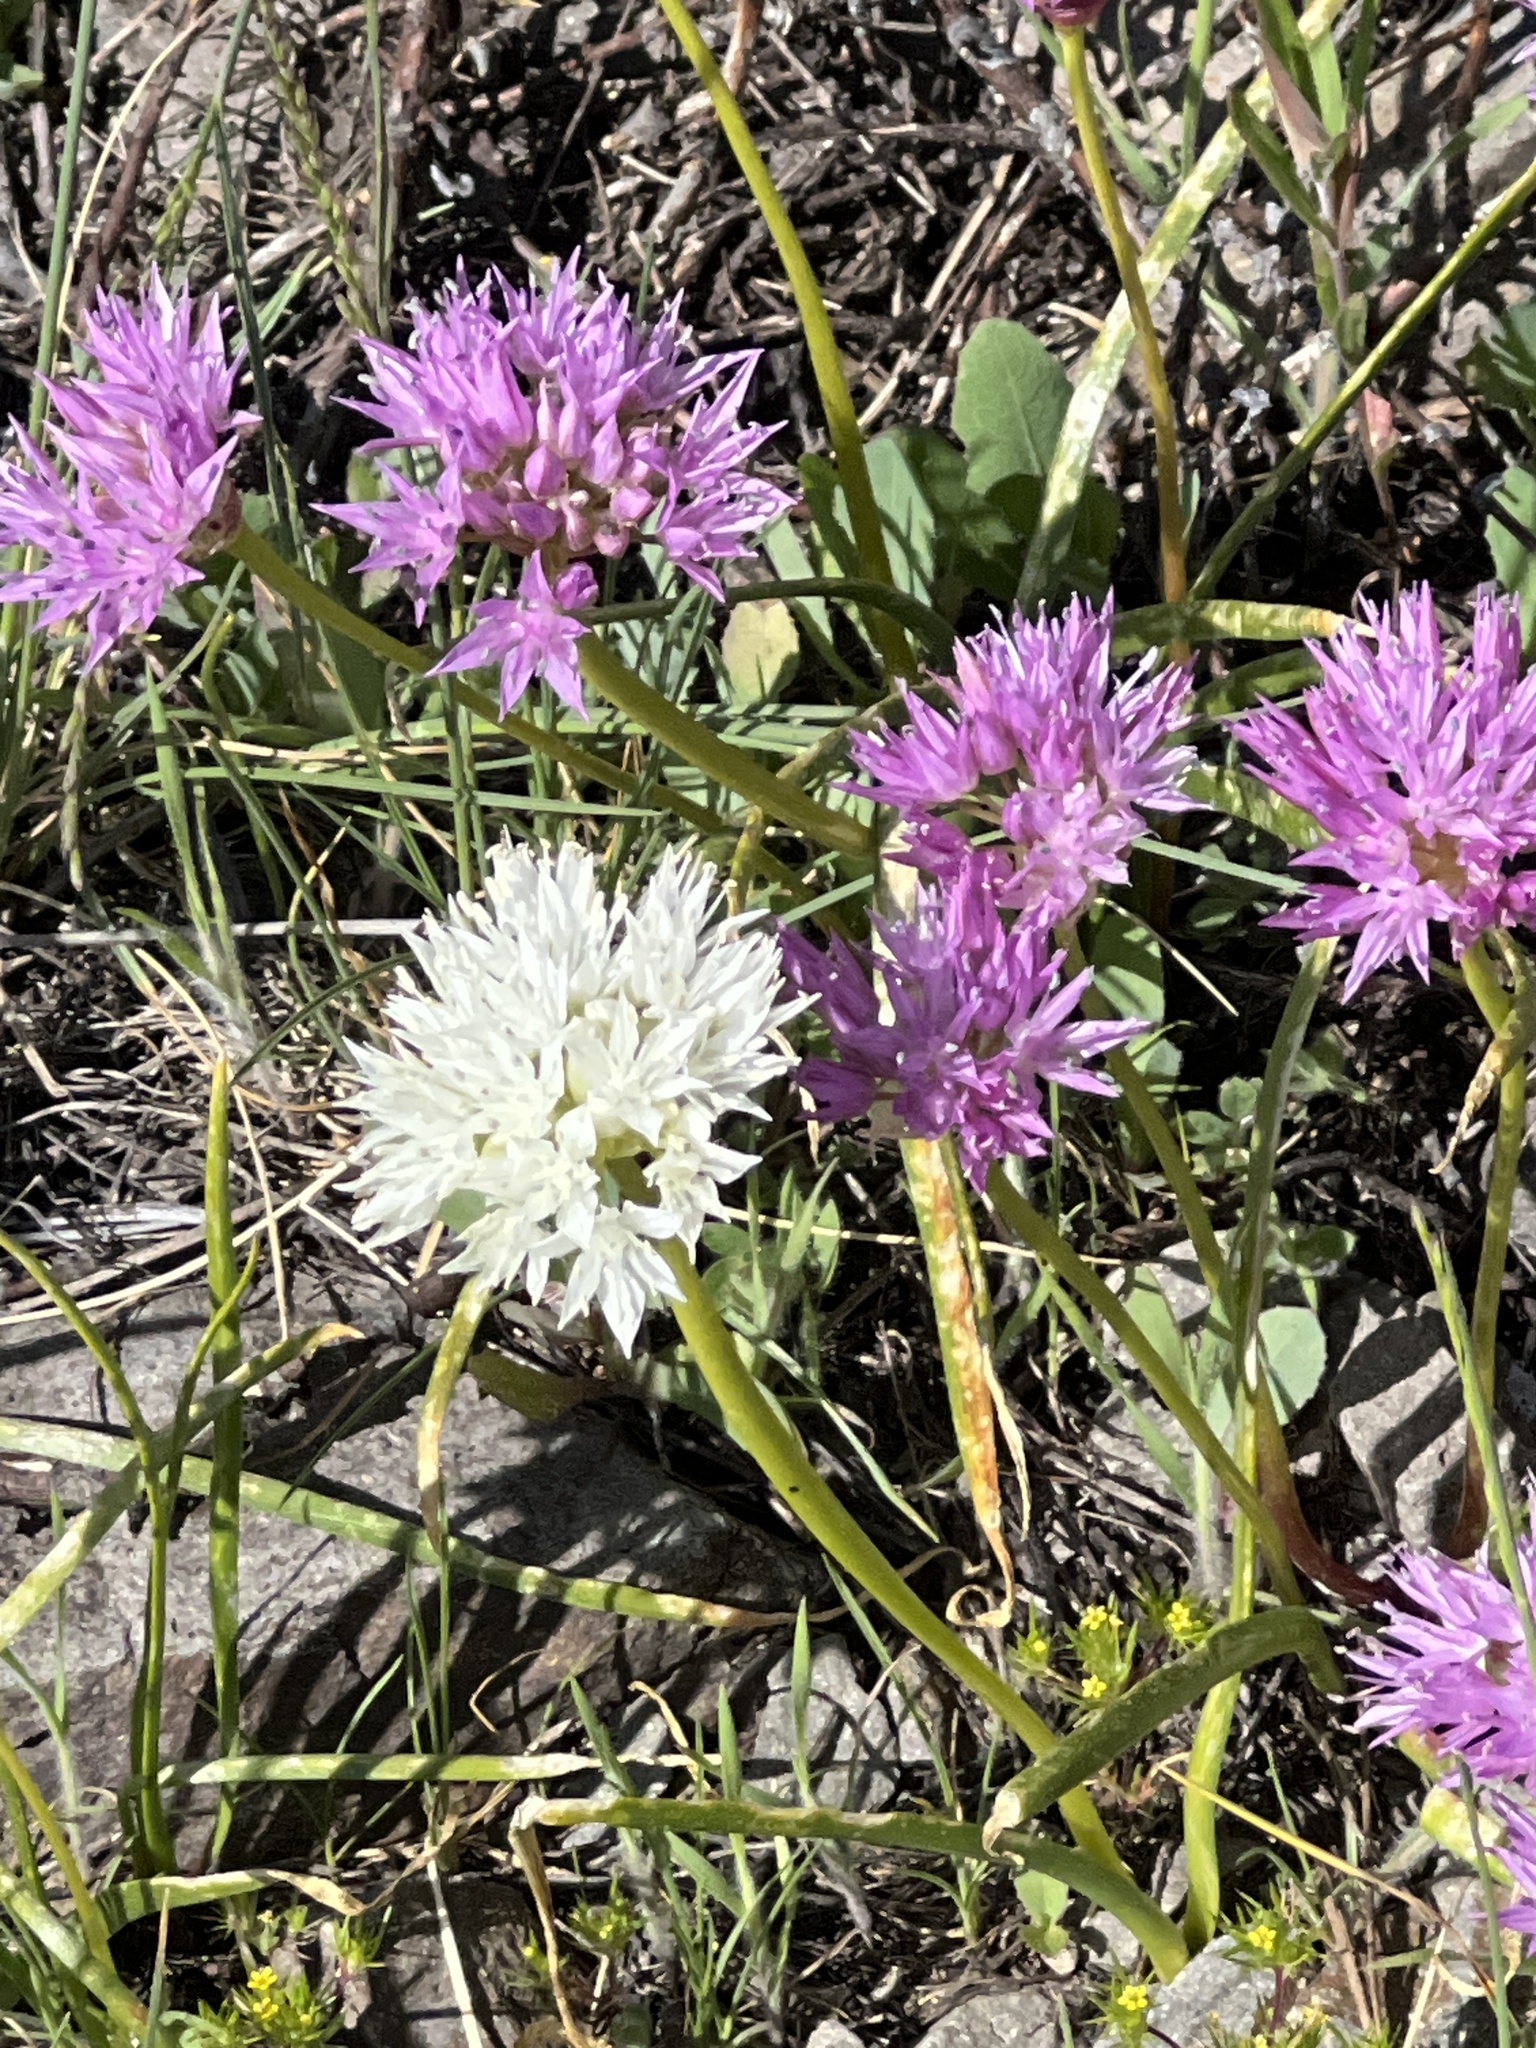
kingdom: Plantae
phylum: Tracheophyta
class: Liliopsida
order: Asparagales
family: Amaryllidaceae
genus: Allium
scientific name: Allium lemmonii
